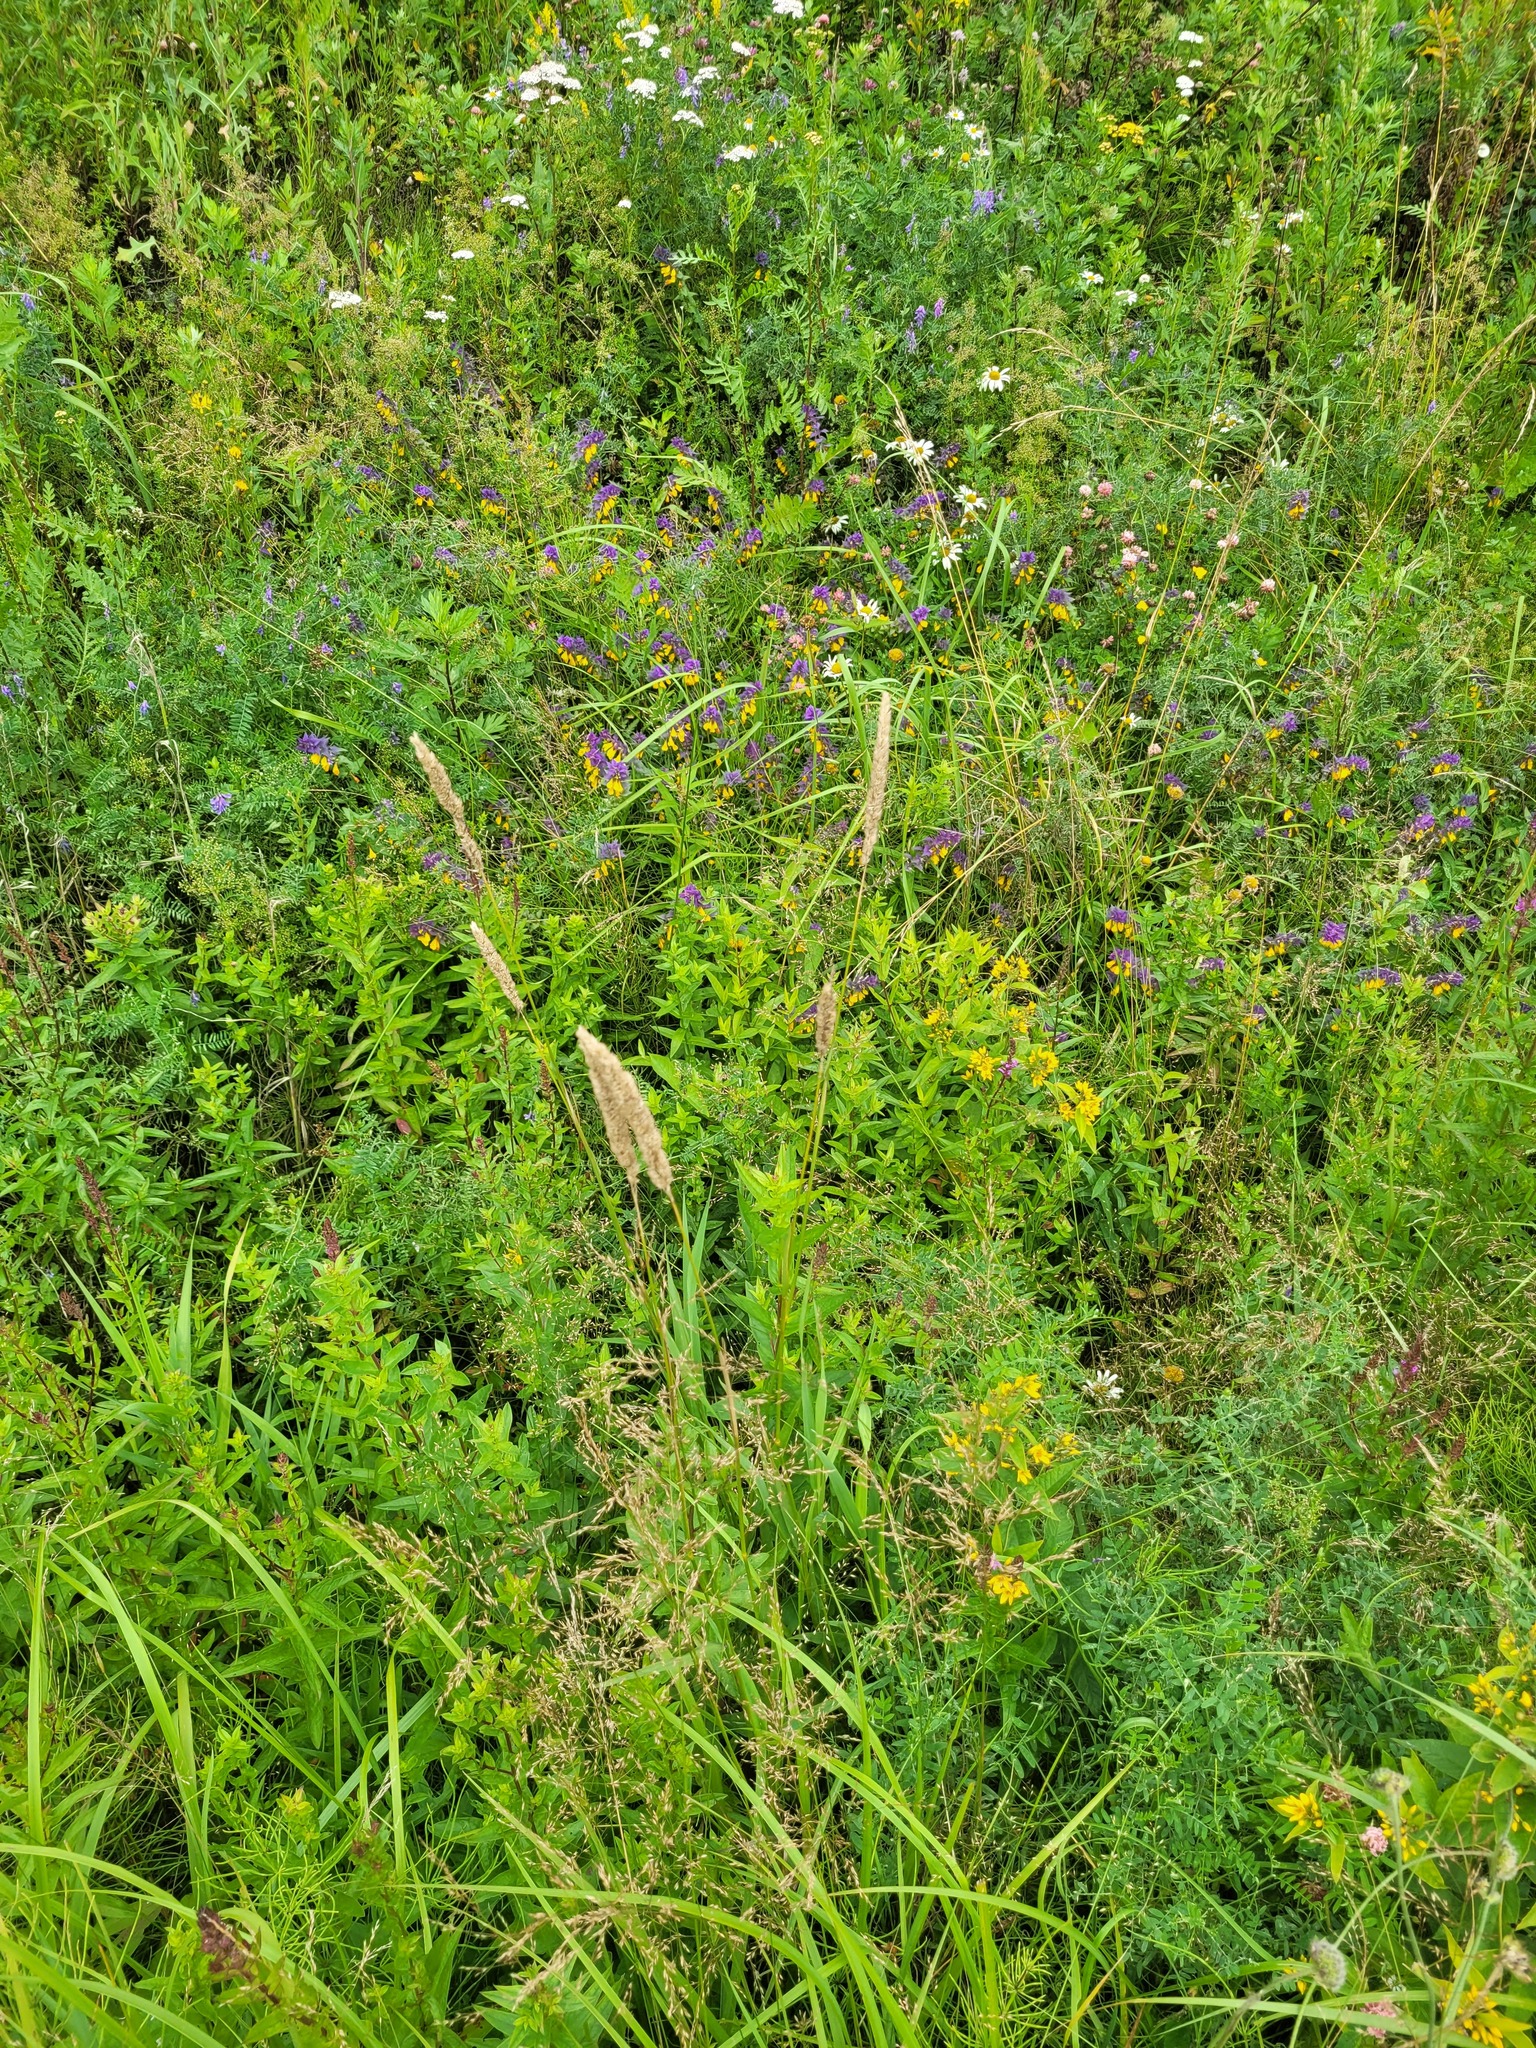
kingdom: Plantae
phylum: Tracheophyta
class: Liliopsida
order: Poales
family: Poaceae
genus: Phalaris
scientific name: Phalaris arundinacea
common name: Reed canary-grass
